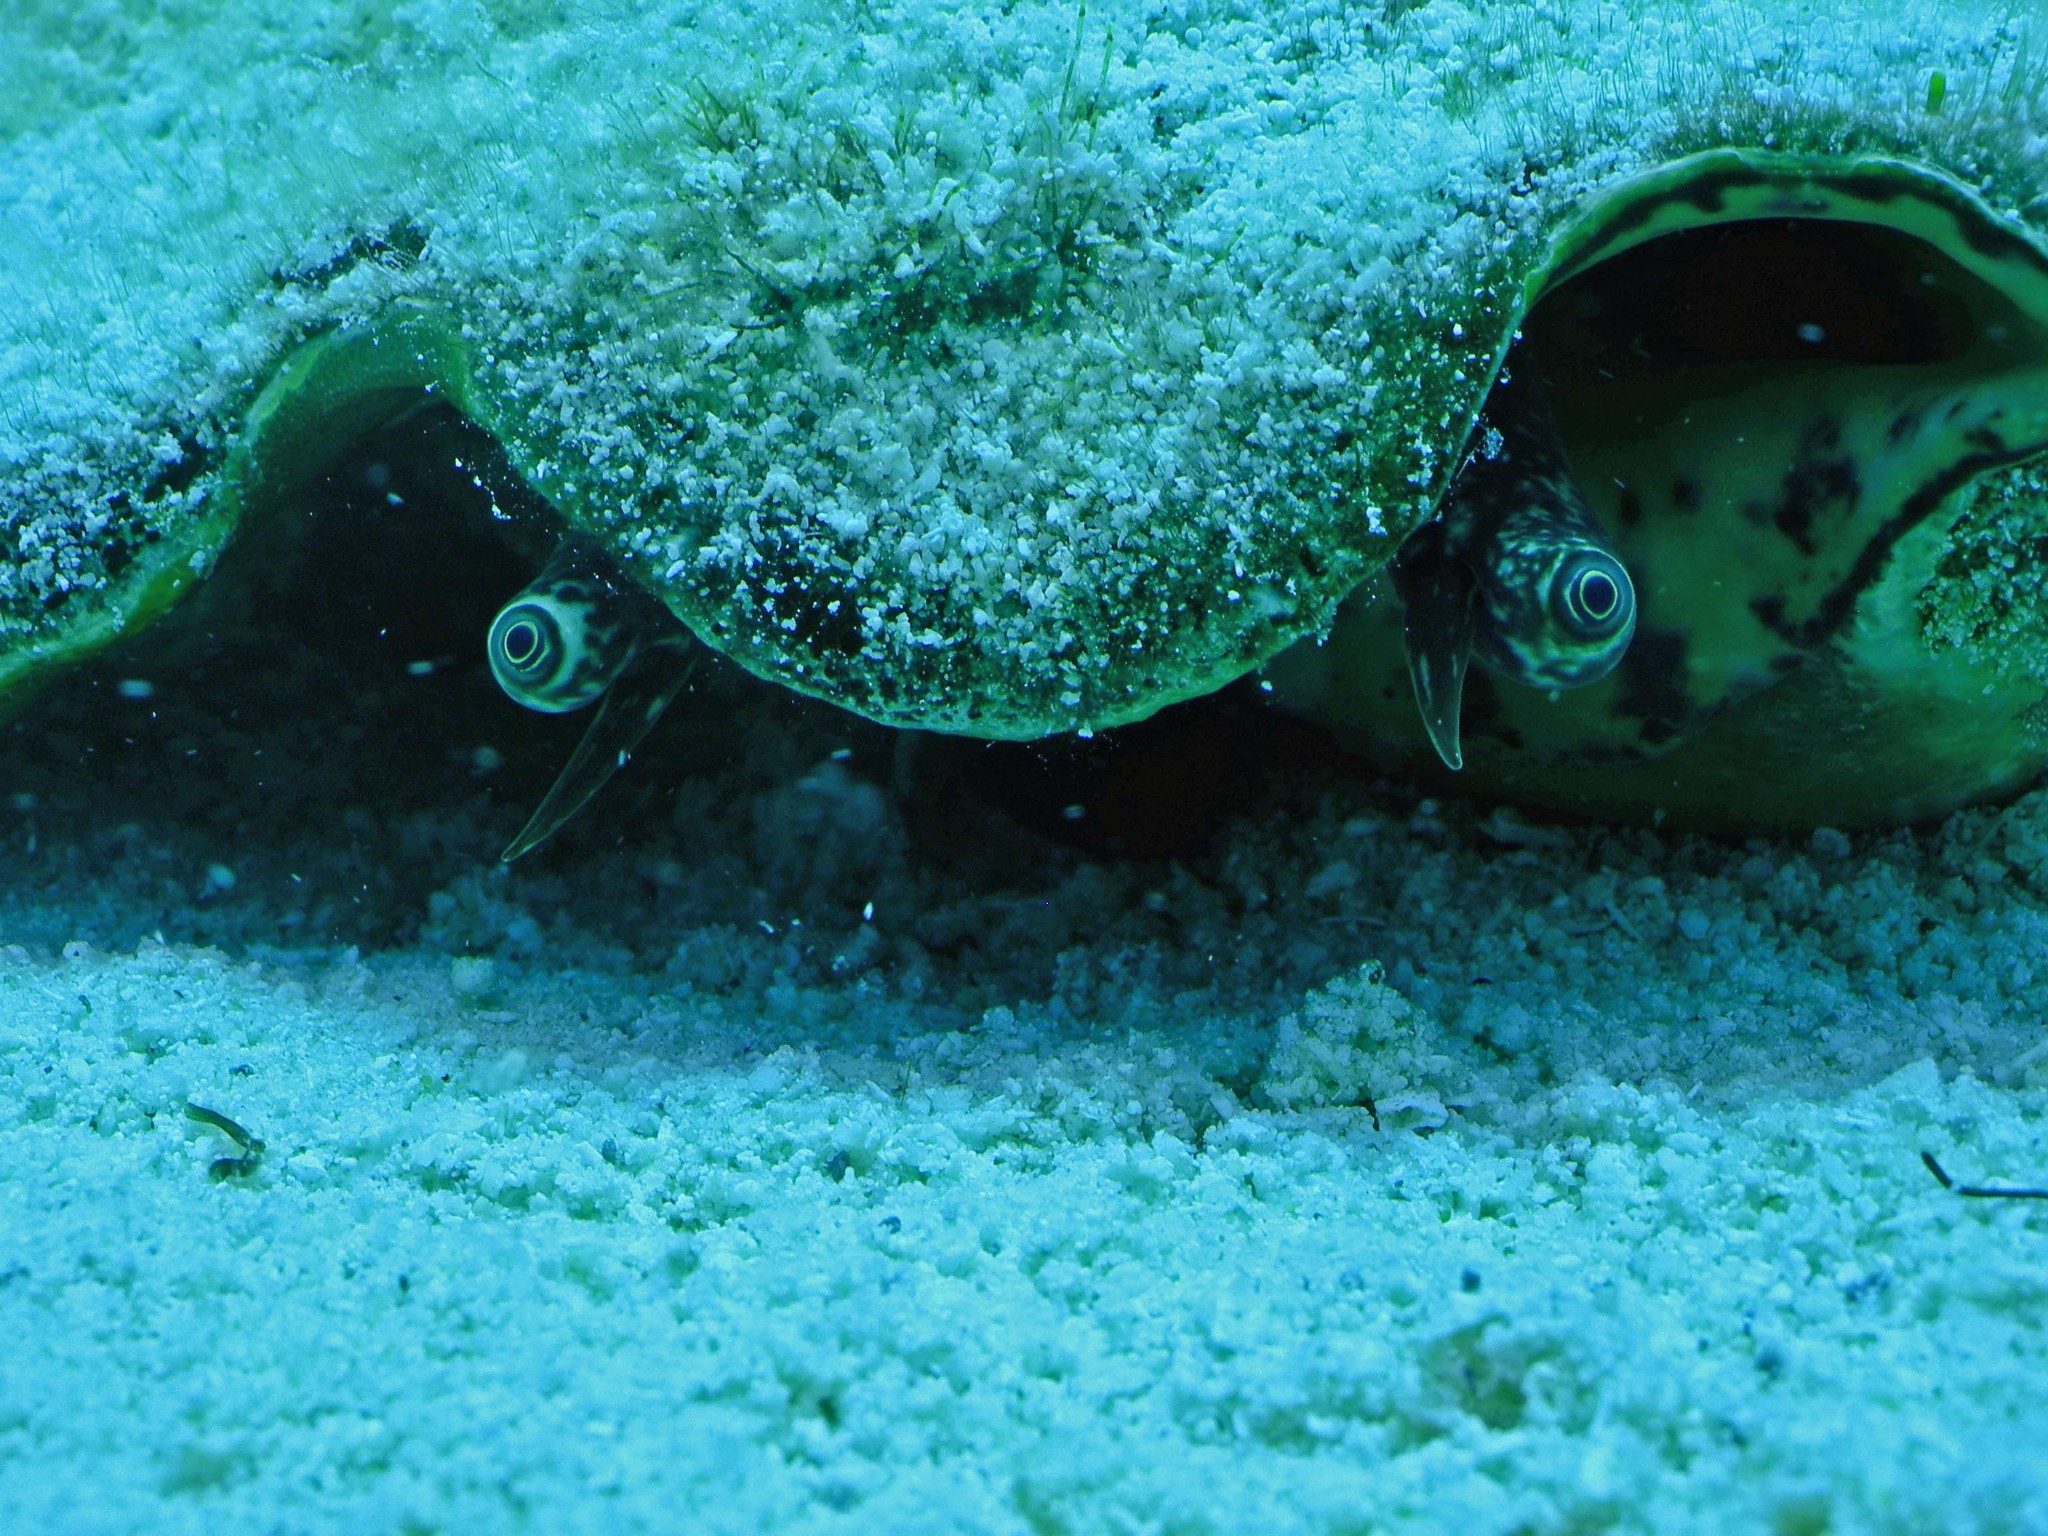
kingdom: Animalia
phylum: Mollusca
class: Gastropoda
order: Littorinimorpha
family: Strombidae
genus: Aliger
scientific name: Aliger gigas
